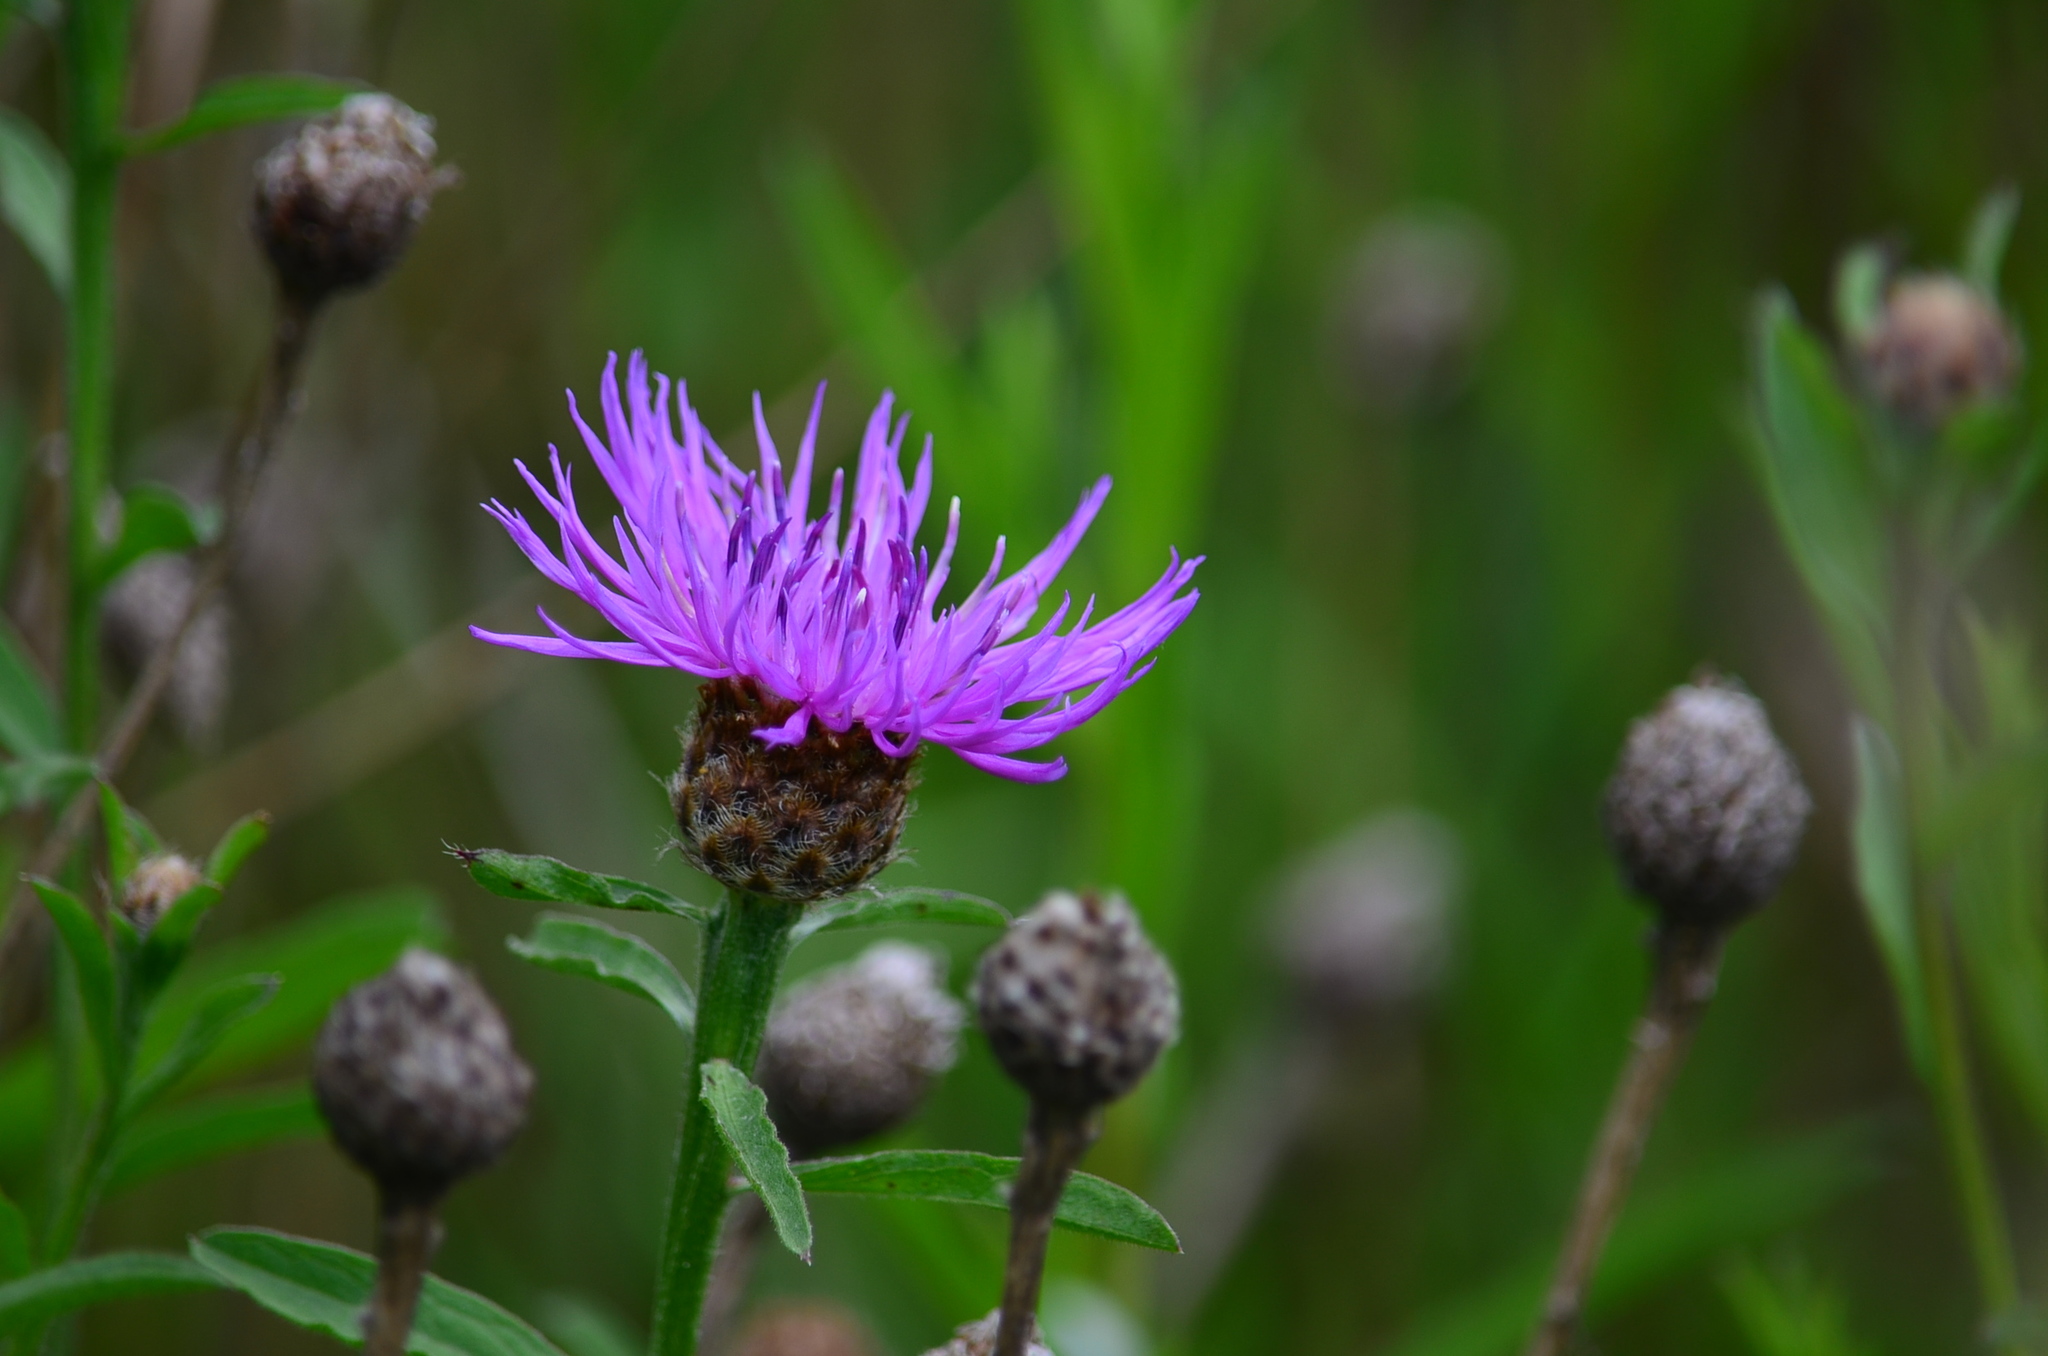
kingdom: Plantae
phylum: Tracheophyta
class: Magnoliopsida
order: Asterales
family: Asteraceae
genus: Centaurea
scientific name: Centaurea moncktonii
